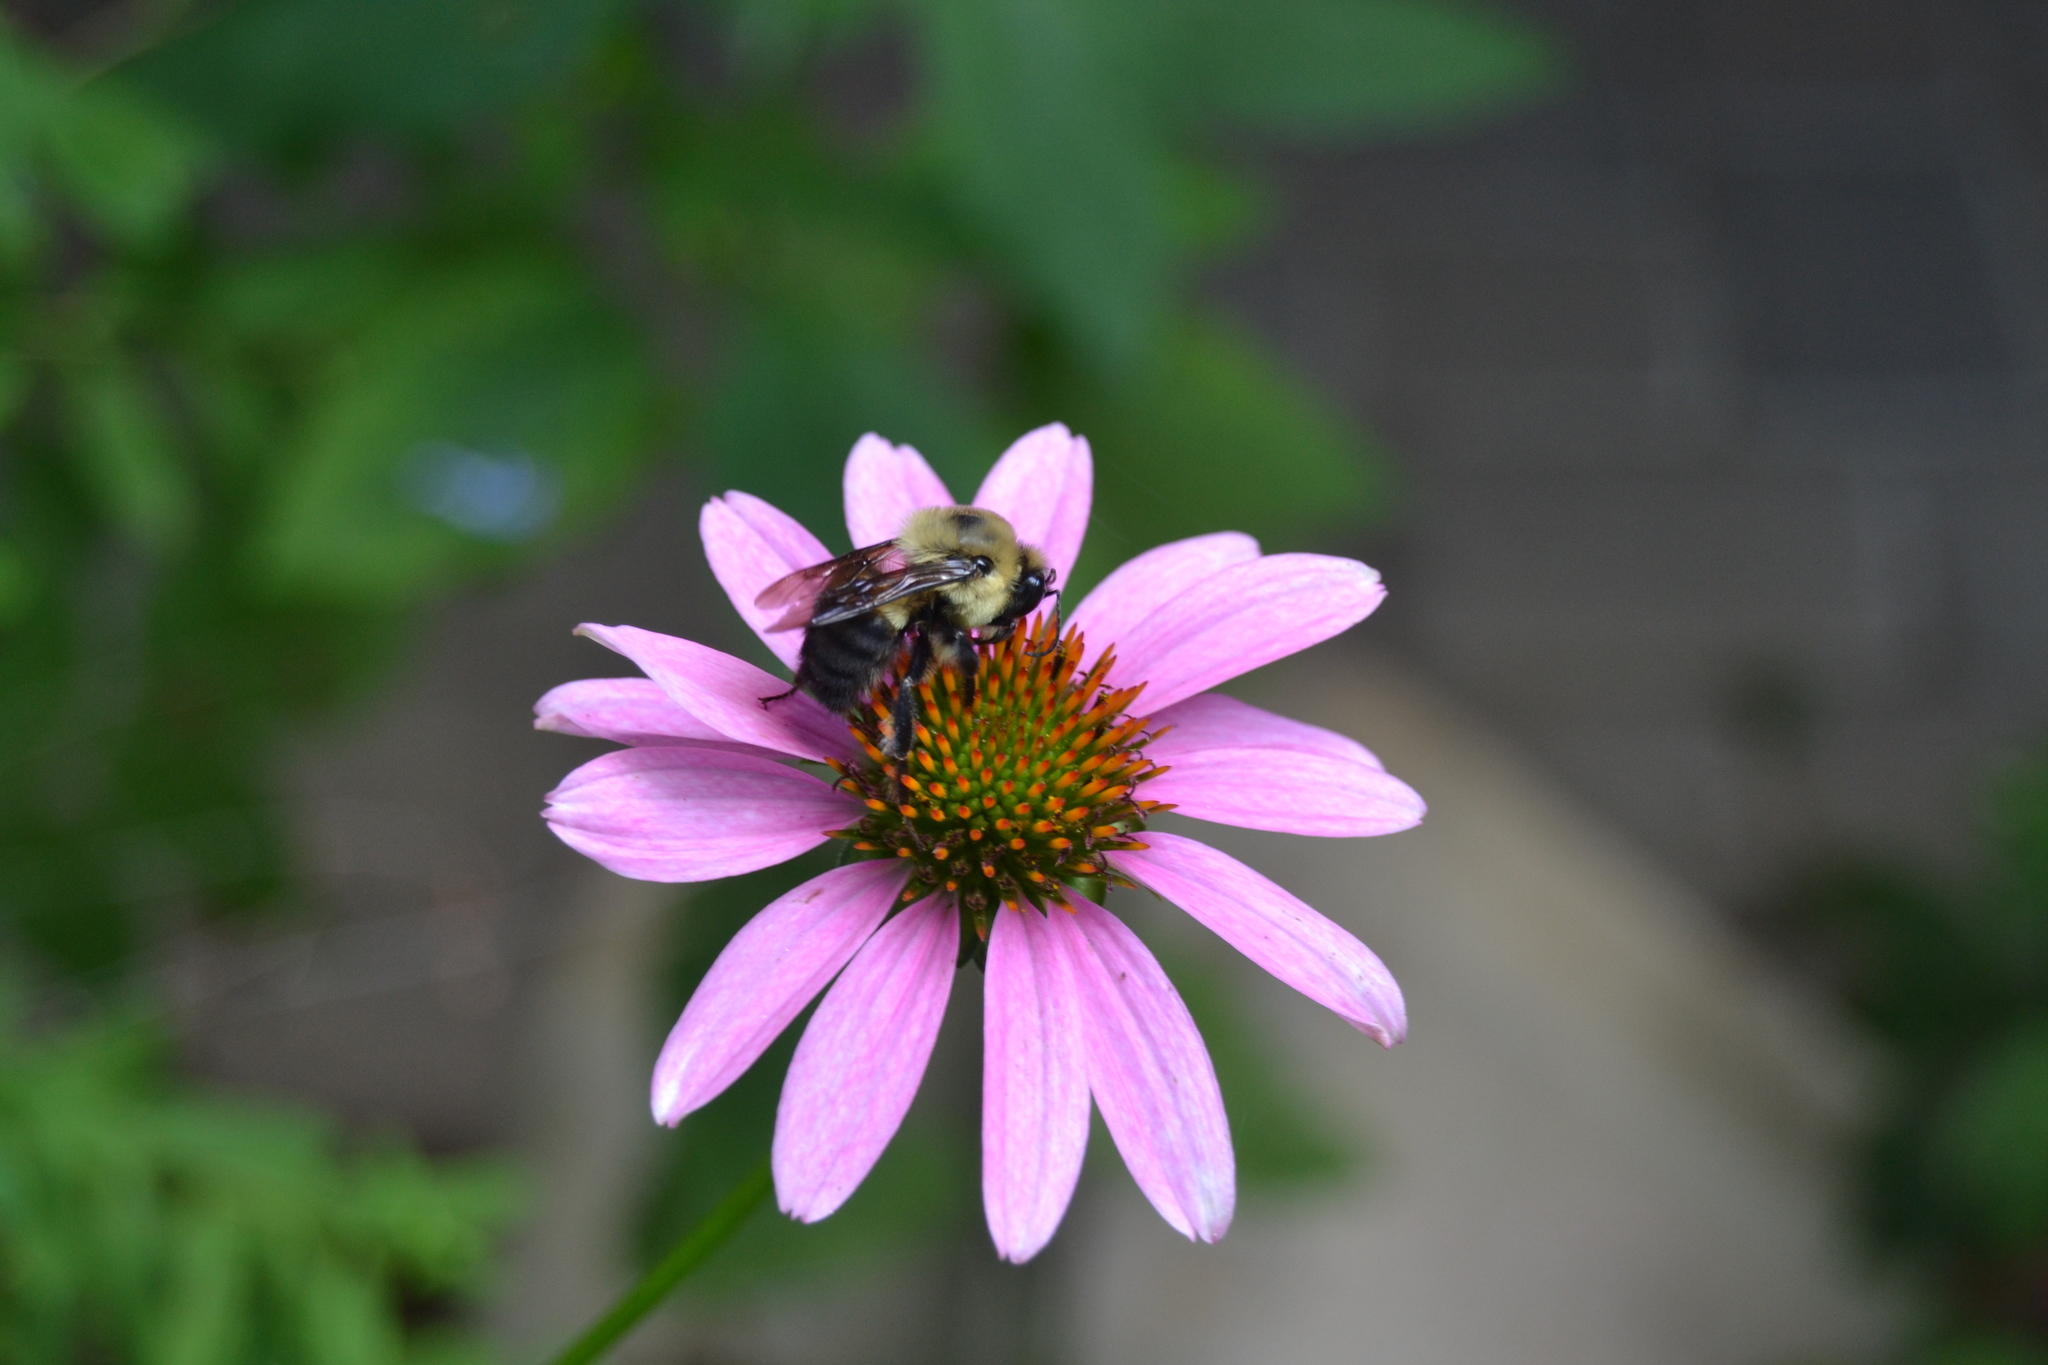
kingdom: Animalia
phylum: Arthropoda
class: Insecta
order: Hymenoptera
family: Apidae
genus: Bombus
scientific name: Bombus griseocollis
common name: Brown-belted bumble bee
